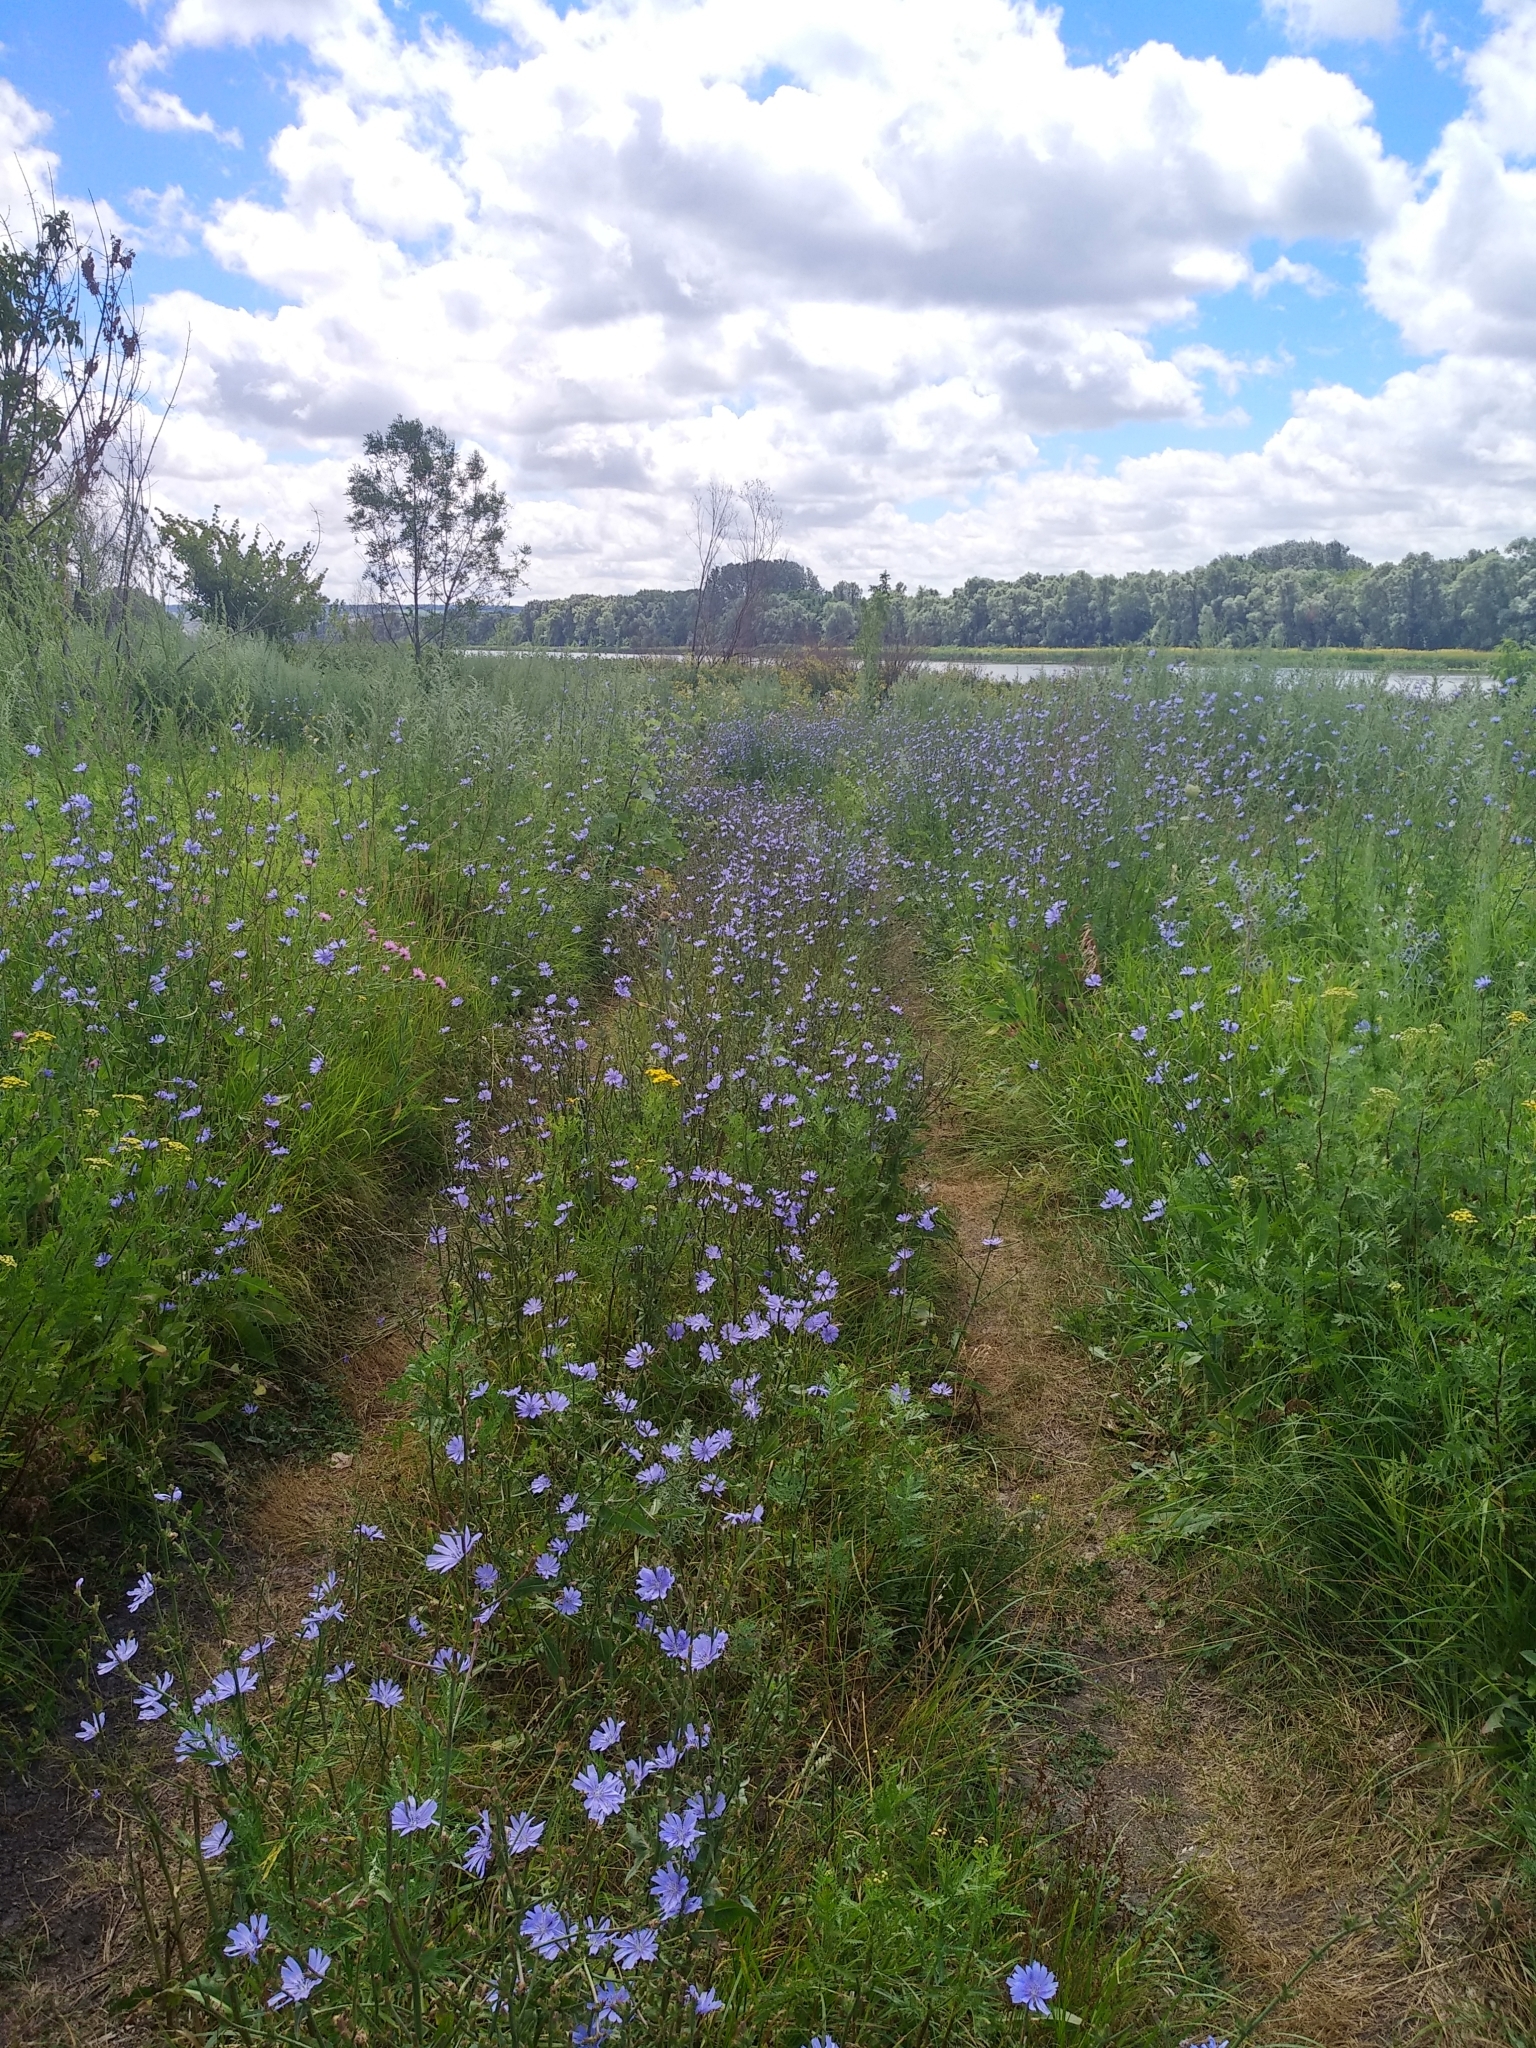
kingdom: Plantae
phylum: Tracheophyta
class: Magnoliopsida
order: Asterales
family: Asteraceae
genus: Cichorium
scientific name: Cichorium intybus
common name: Chicory
